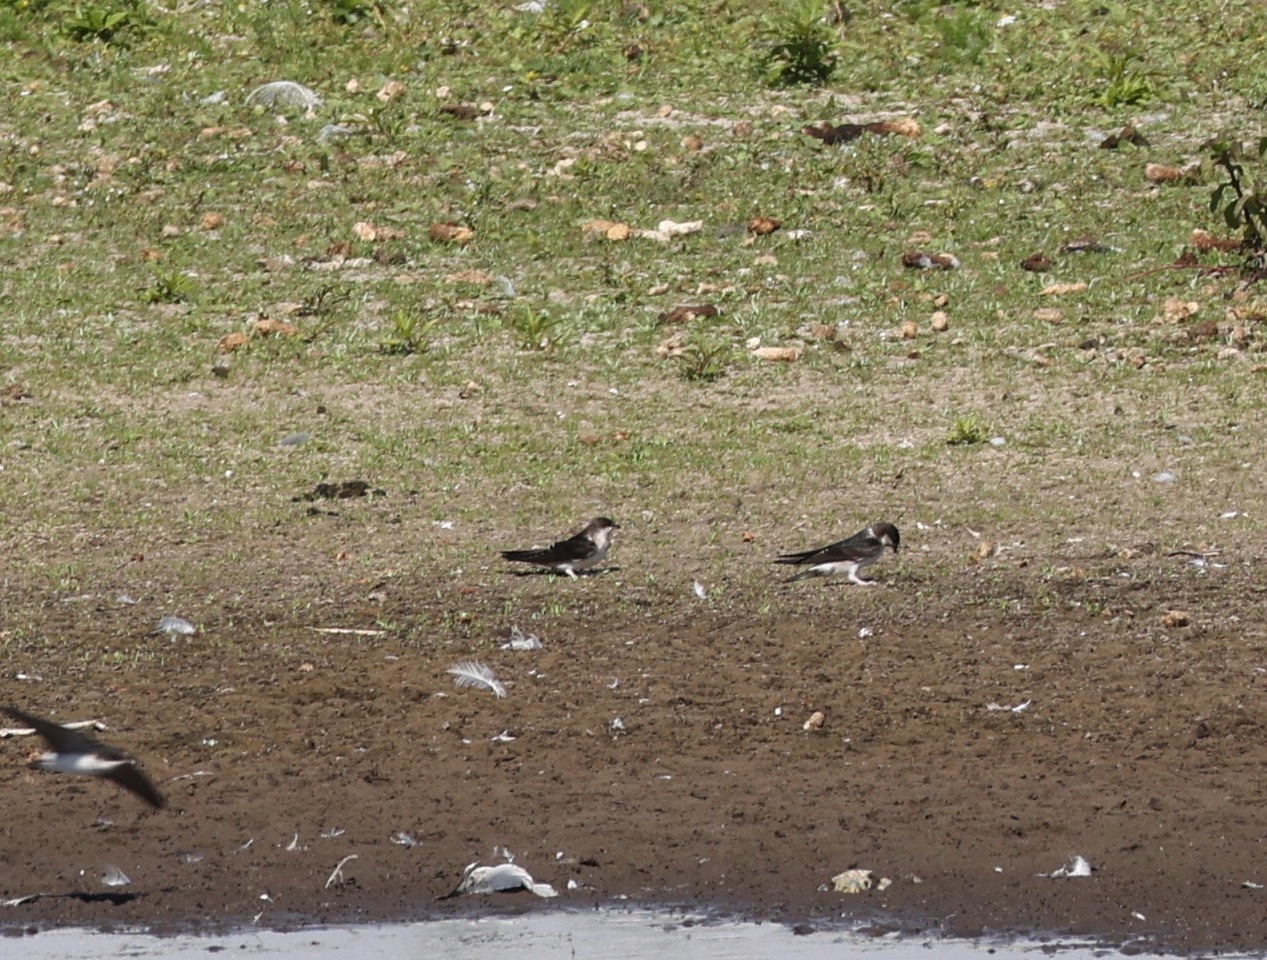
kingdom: Animalia
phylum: Chordata
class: Aves
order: Passeriformes
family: Hirundinidae
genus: Delichon
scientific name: Delichon urbicum
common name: Common house martin
